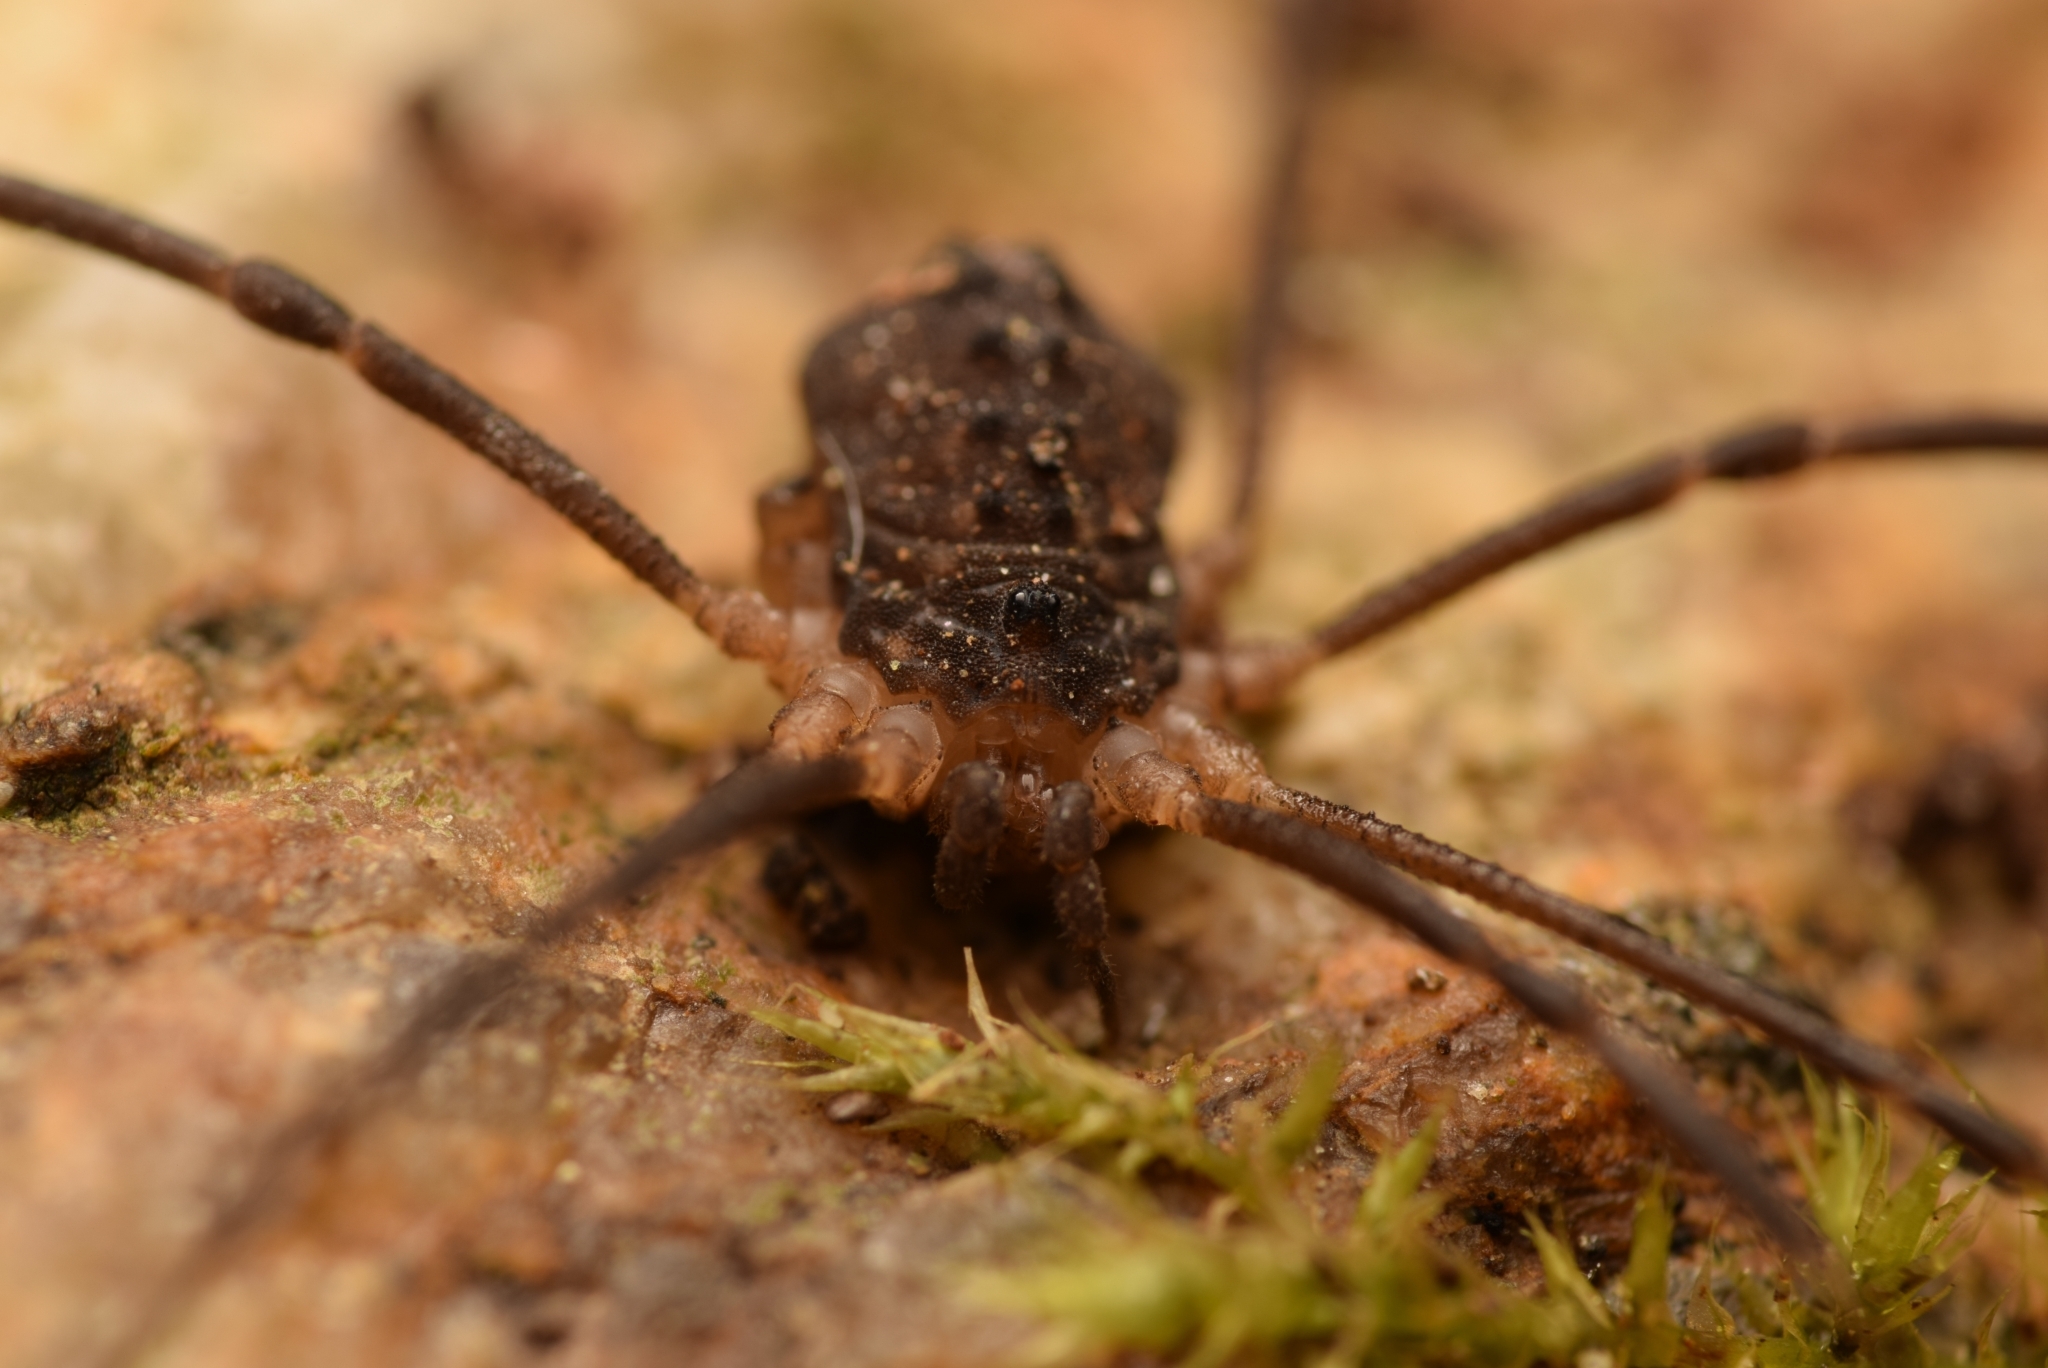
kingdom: Animalia
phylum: Arthropoda
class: Arachnida
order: Opiliones
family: Sclerosomatidae
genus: Astrobunus
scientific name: Astrobunus grallator
